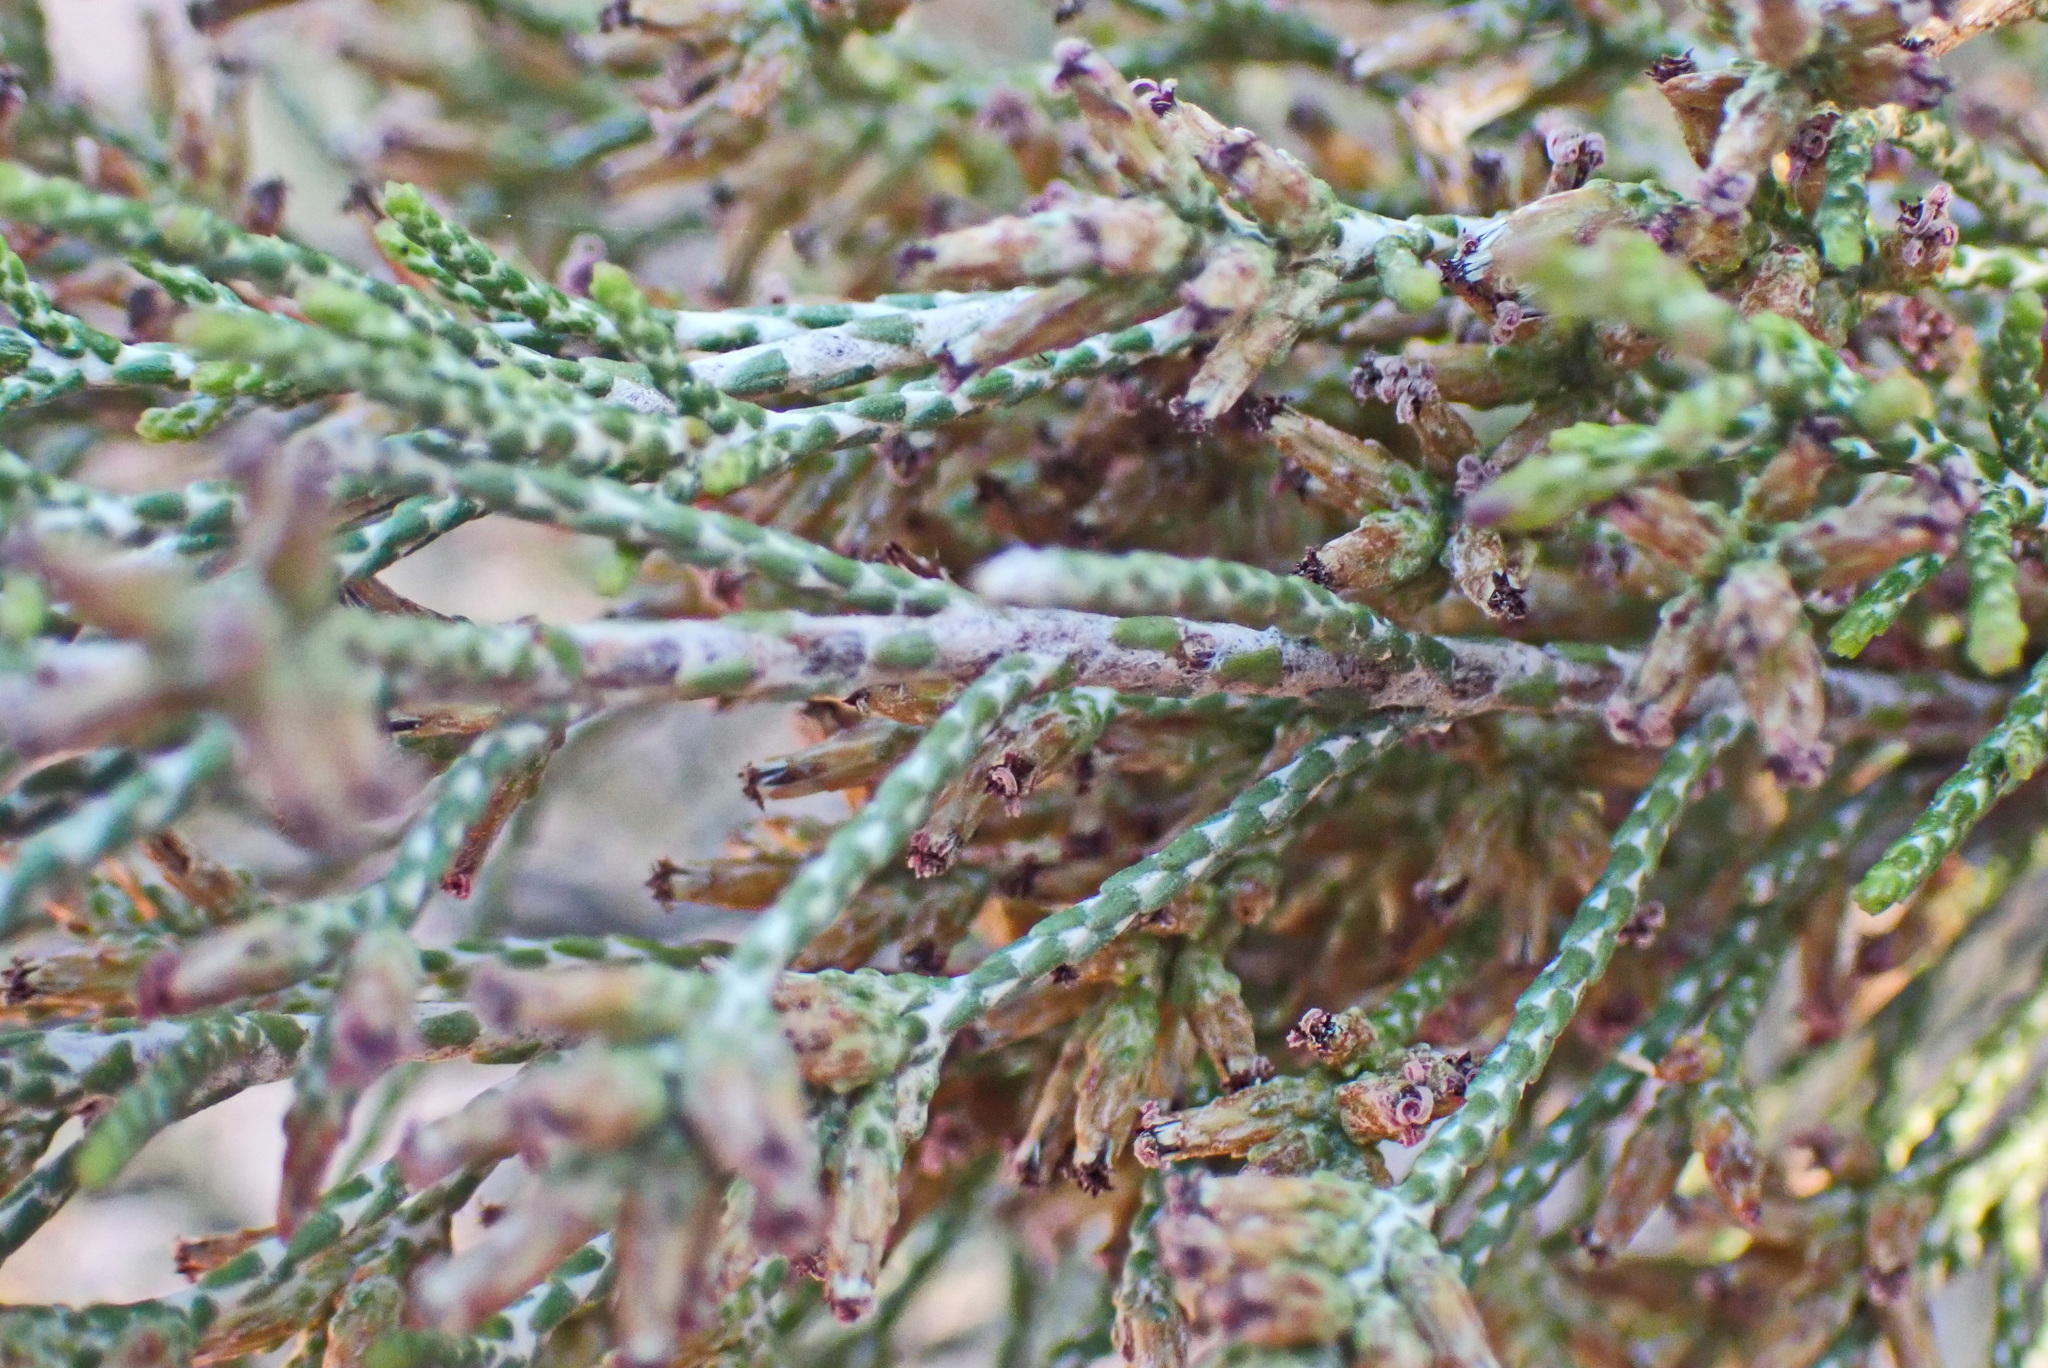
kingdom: Plantae
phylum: Tracheophyta
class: Magnoliopsida
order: Asterales
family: Asteraceae
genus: Dicerothamnus
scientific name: Dicerothamnus rhinocerotis
